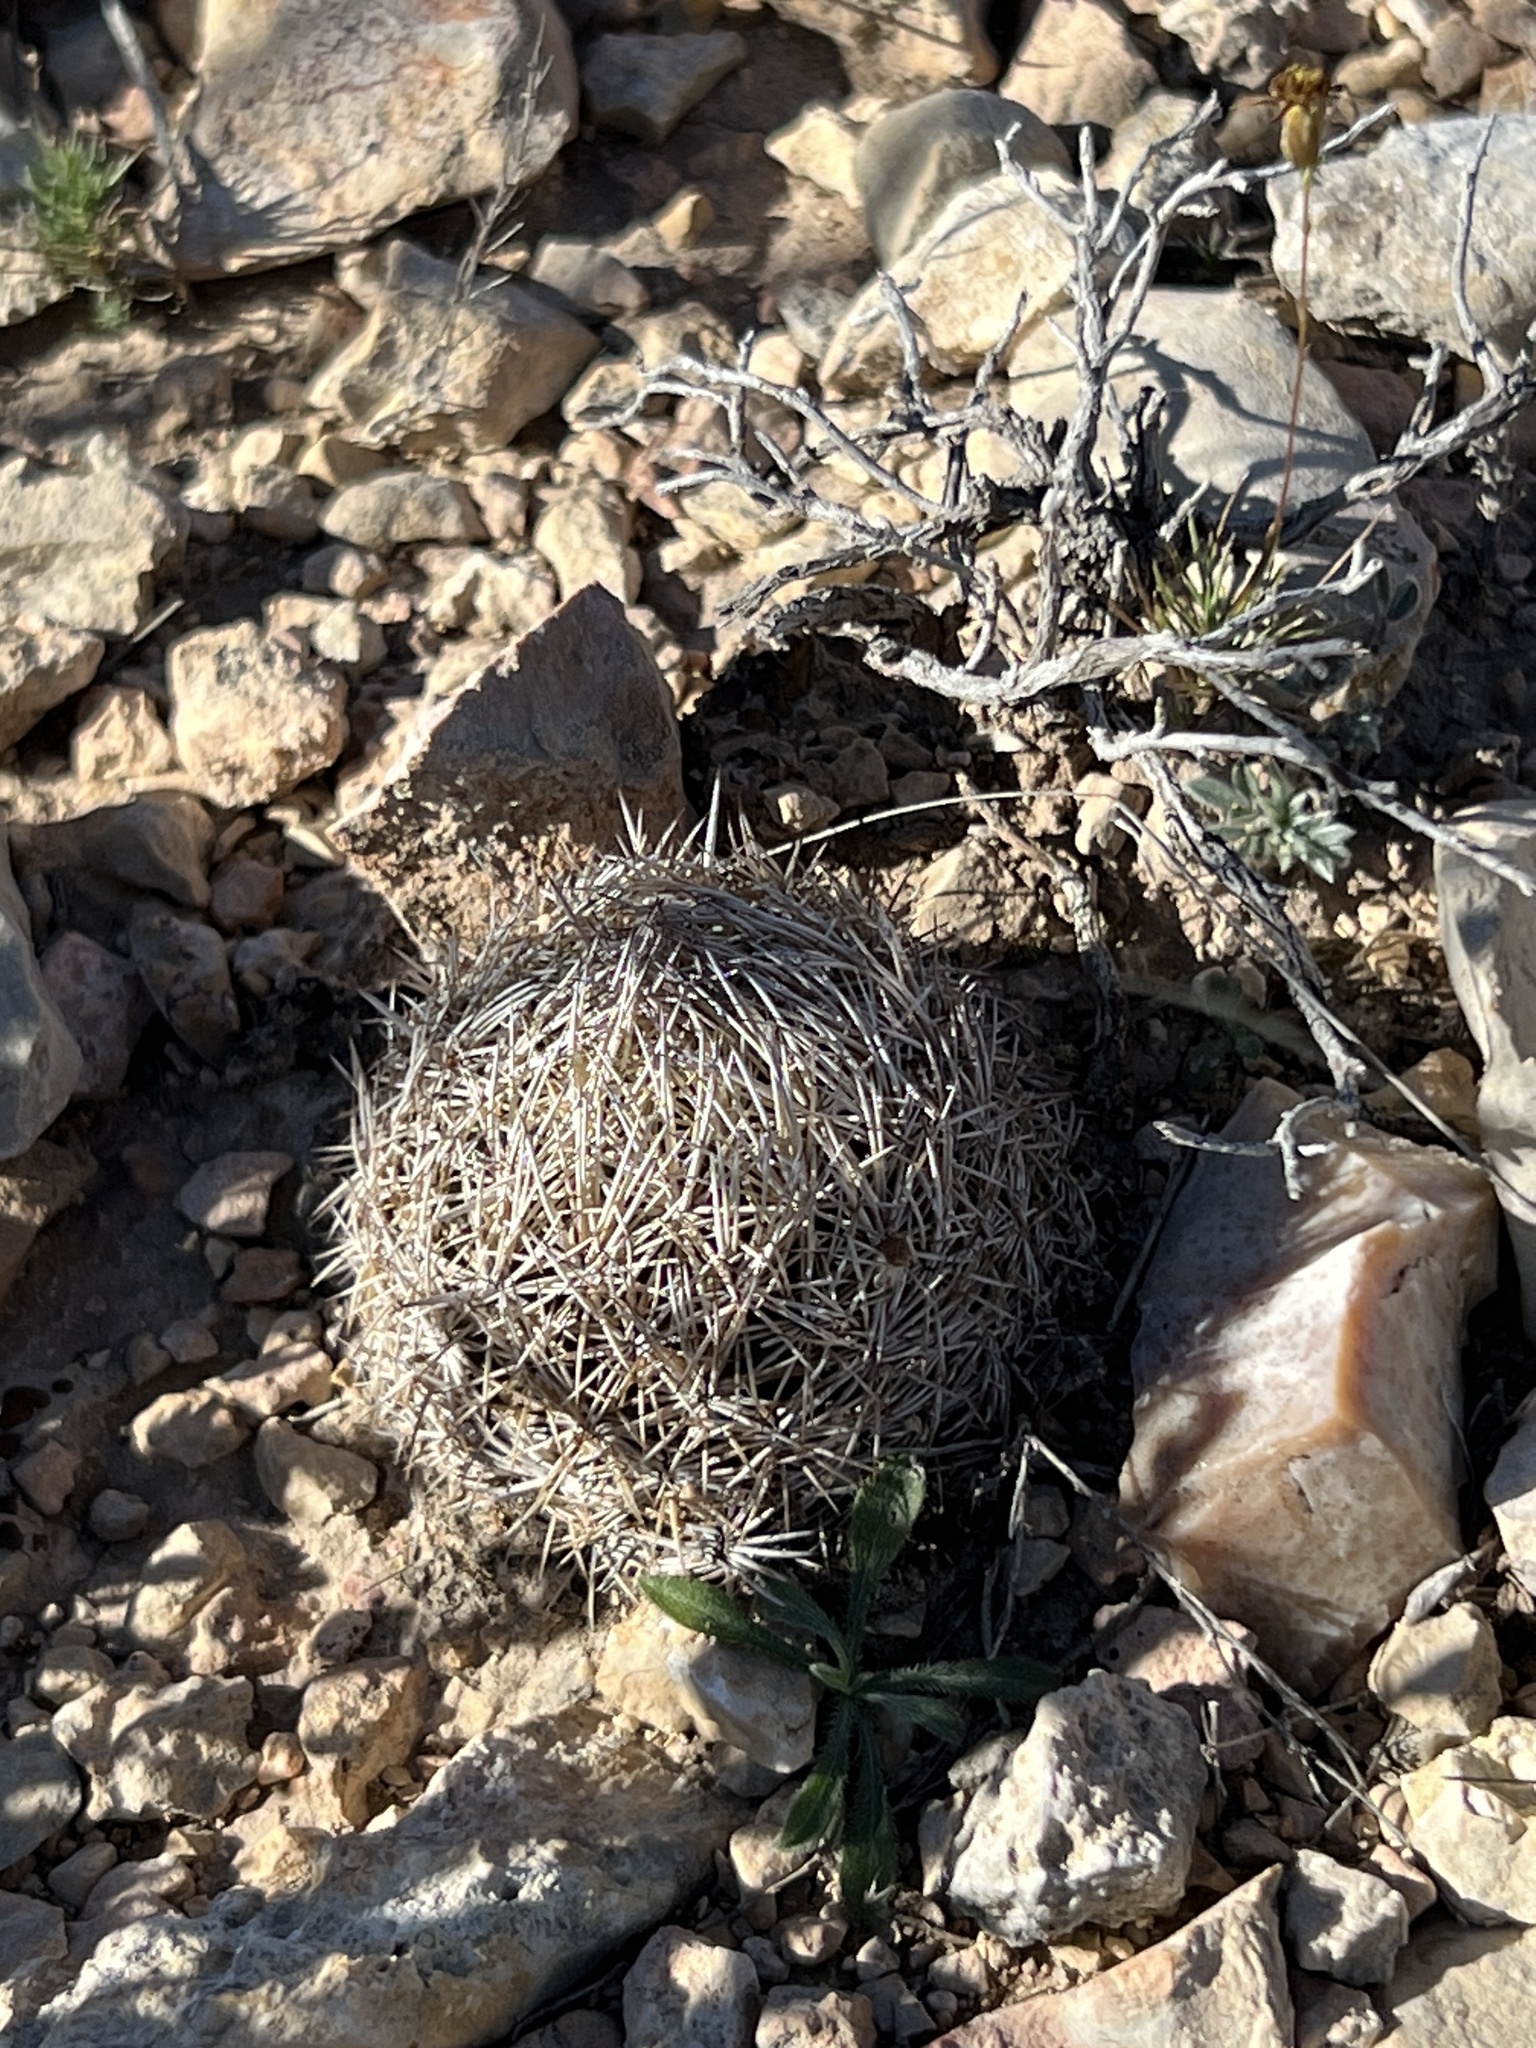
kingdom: Plantae
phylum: Tracheophyta
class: Magnoliopsida
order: Caryophyllales
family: Cactaceae
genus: Coryphantha
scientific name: Coryphantha echinus
